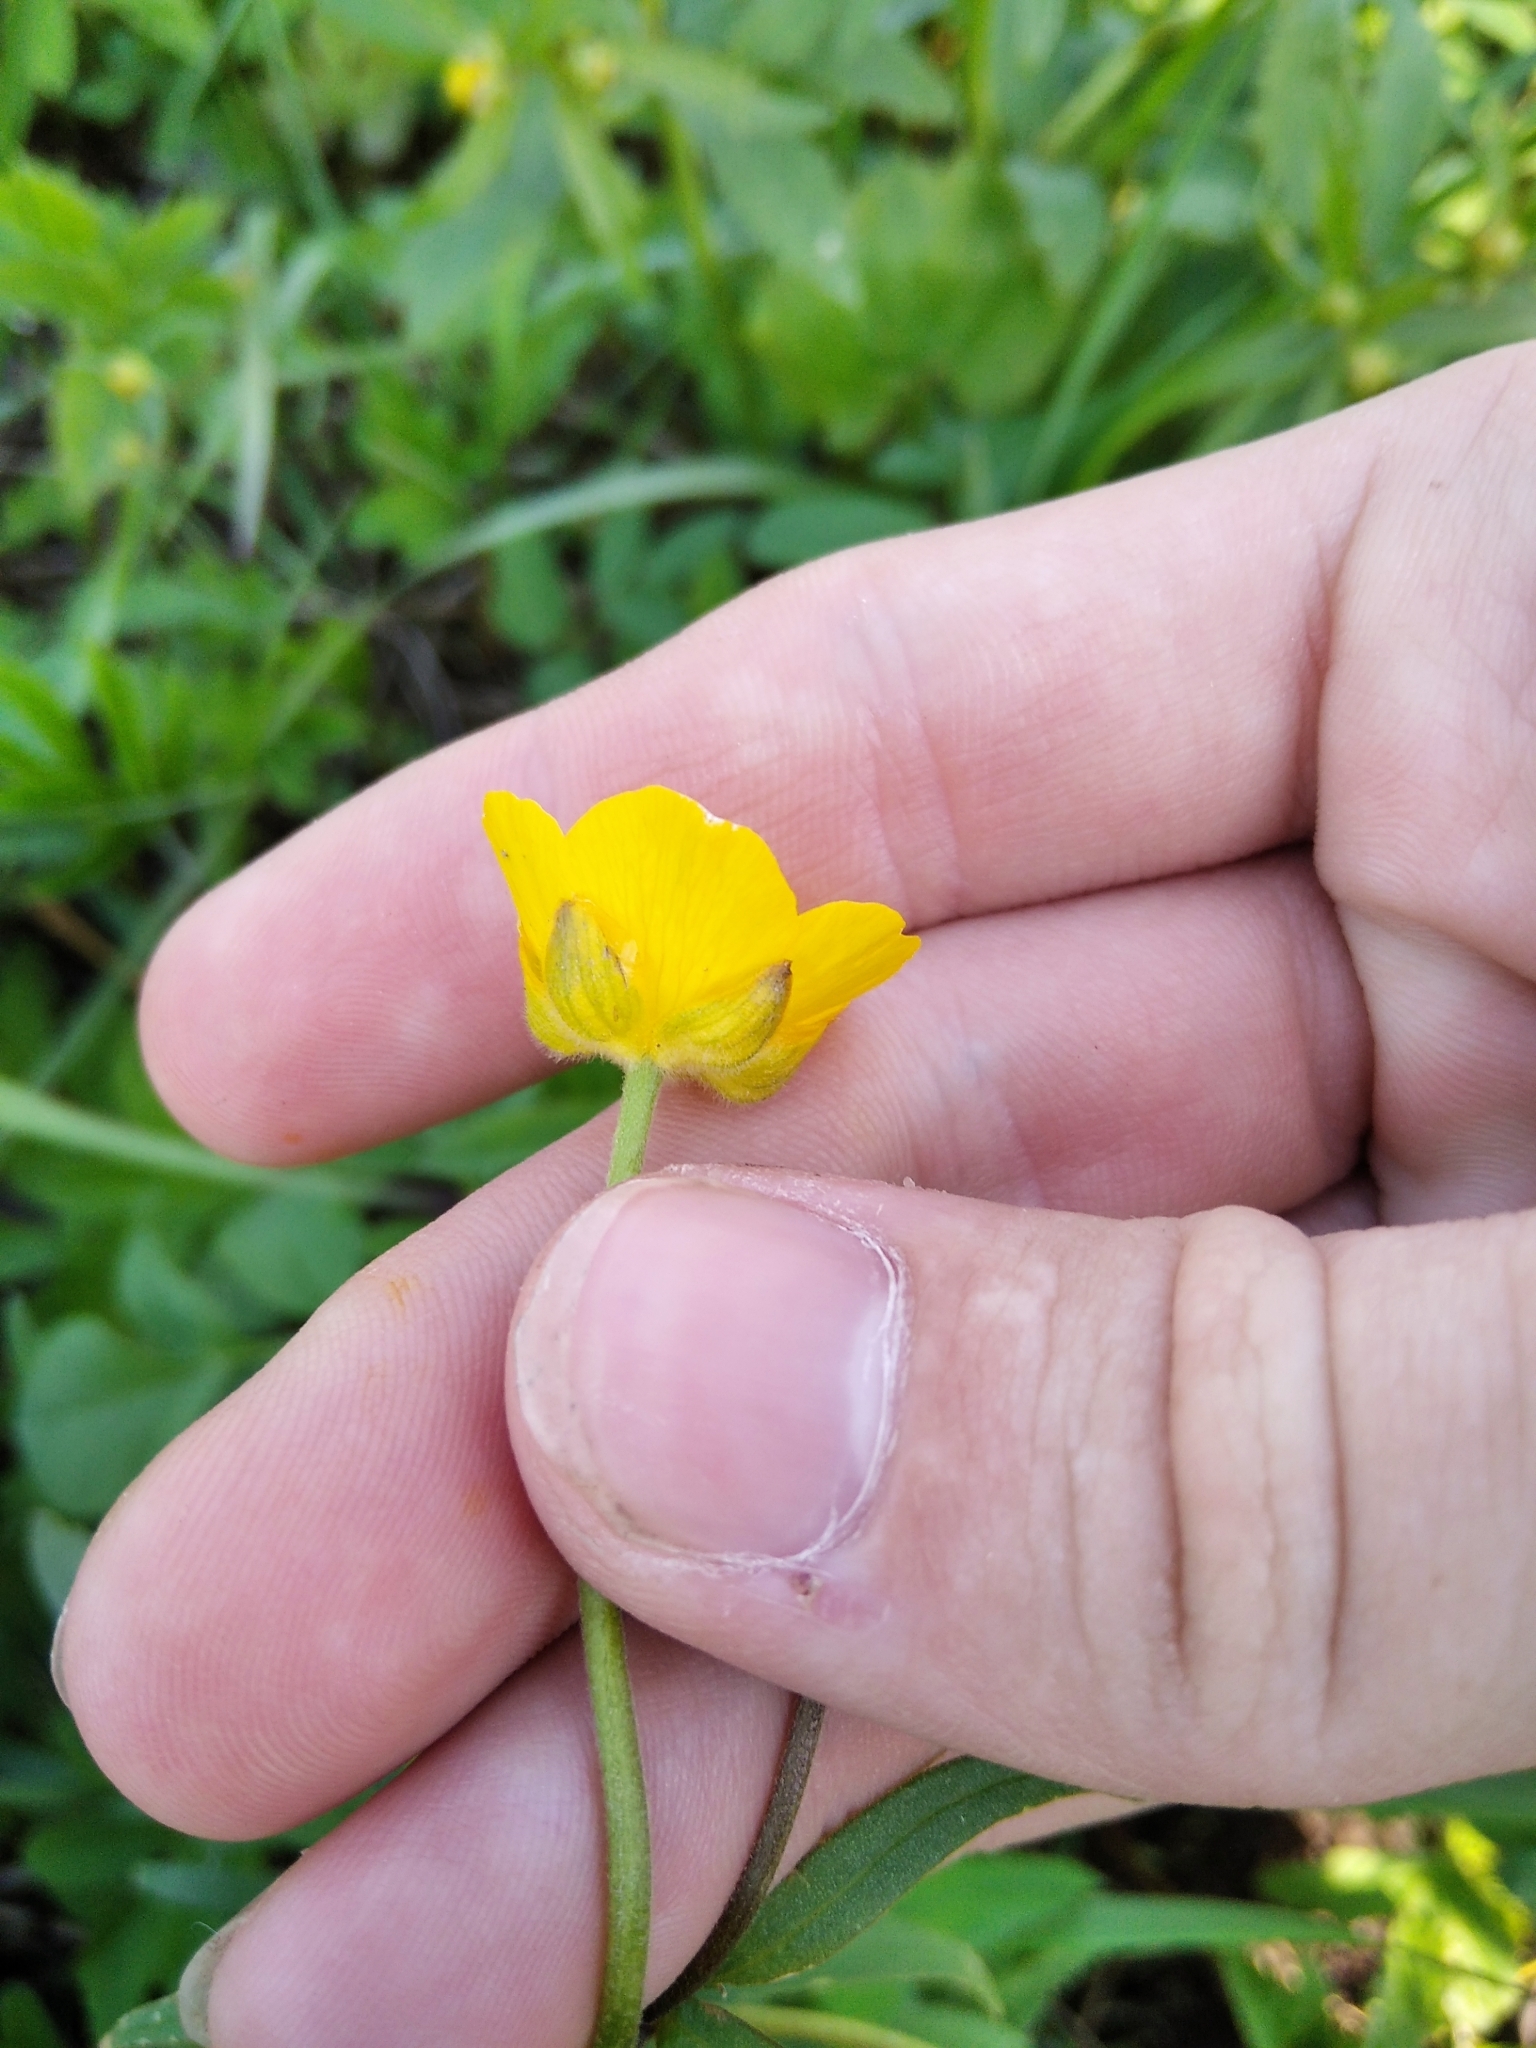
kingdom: Plantae
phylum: Tracheophyta
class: Magnoliopsida
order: Ranunculales
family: Ranunculaceae
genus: Ranunculus
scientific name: Ranunculus auricomus
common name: Goldilocks buttercup
